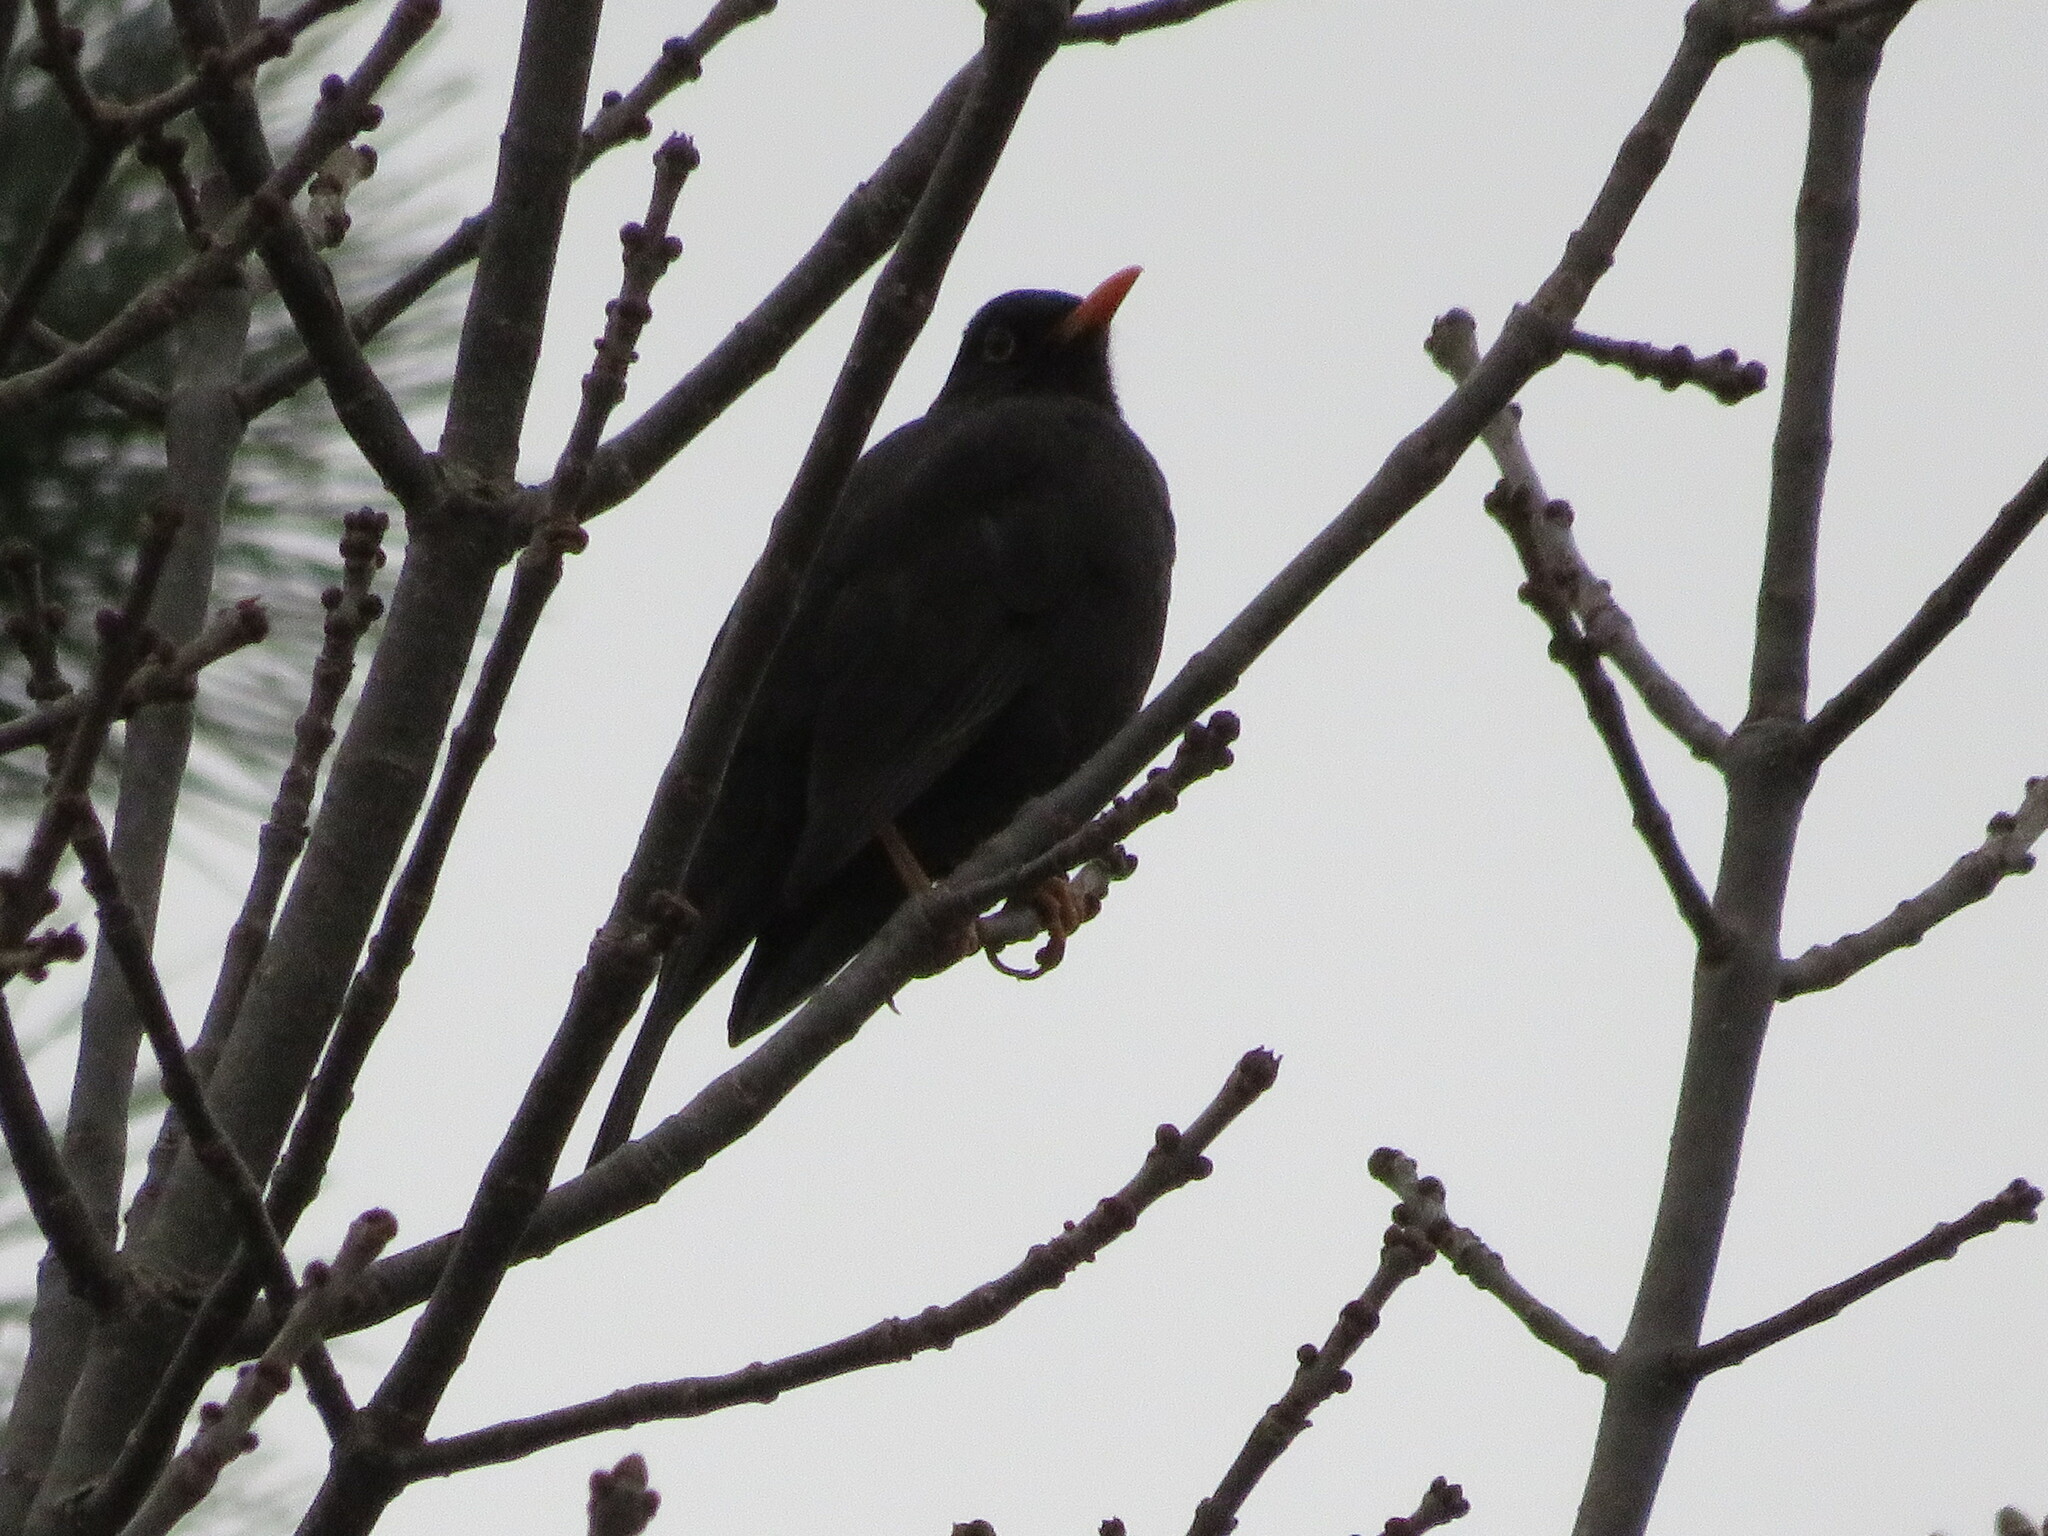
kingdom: Animalia
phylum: Chordata
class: Aves
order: Passeriformes
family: Turdidae
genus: Turdus
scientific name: Turdus chiguanco
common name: Chiguanco thrush
